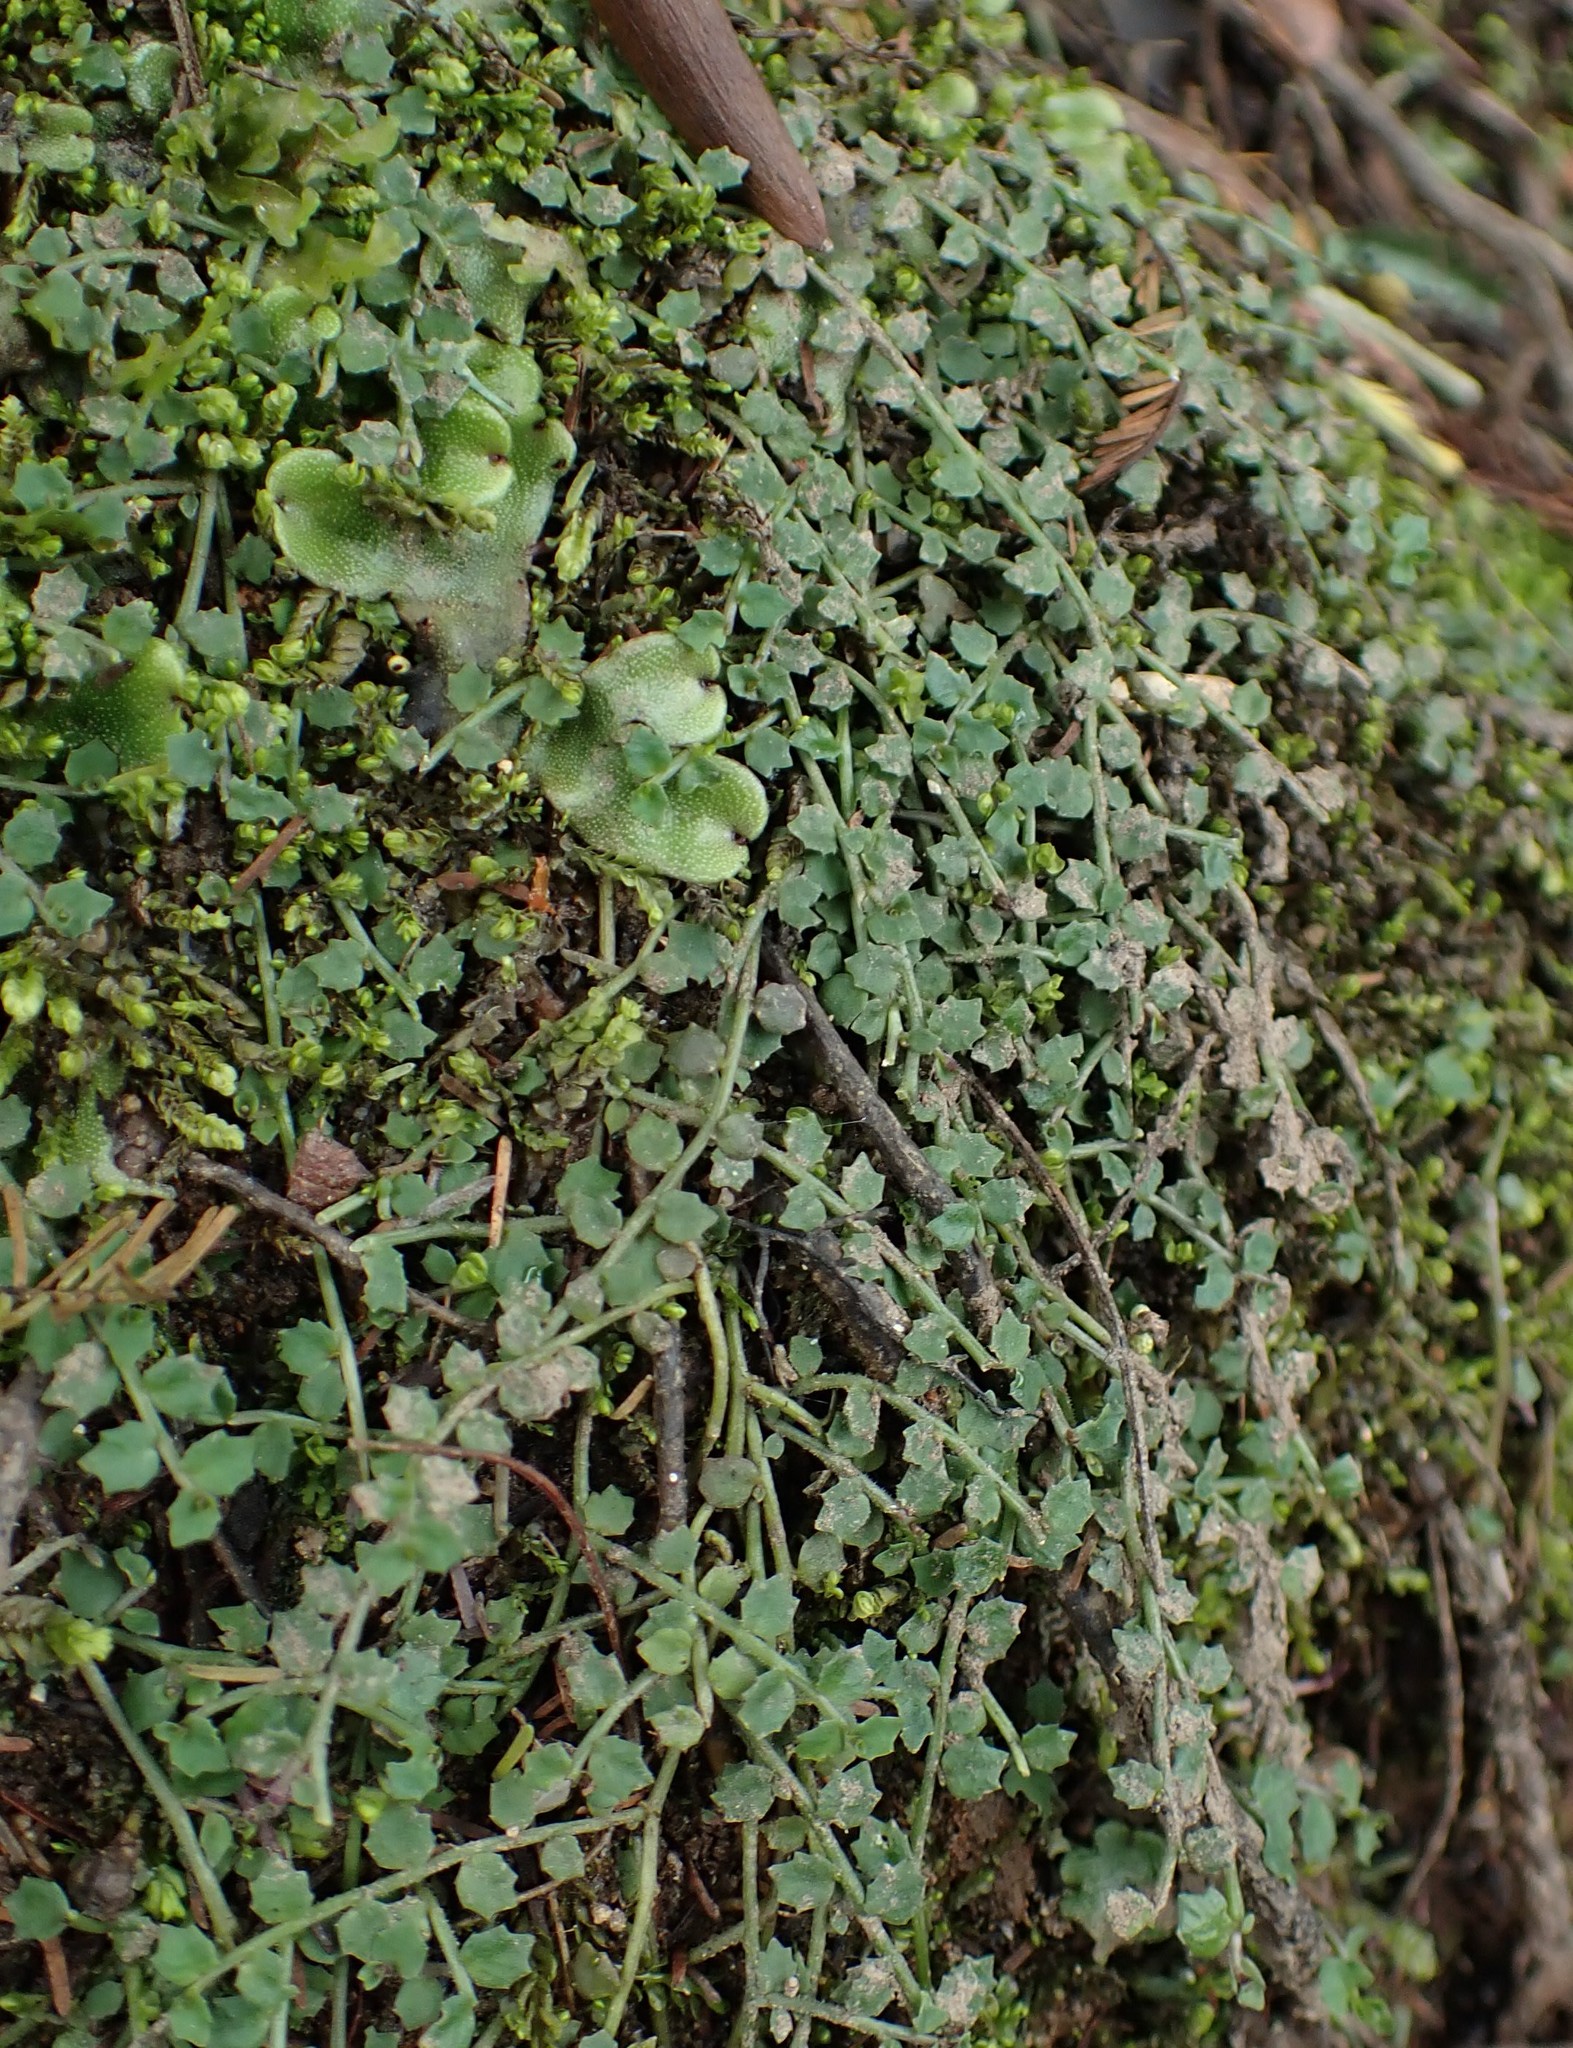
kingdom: Plantae
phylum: Tracheophyta
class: Magnoliopsida
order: Asterales
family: Campanulaceae
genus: Lobelia
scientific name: Lobelia pedunculata
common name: Matted pratia
